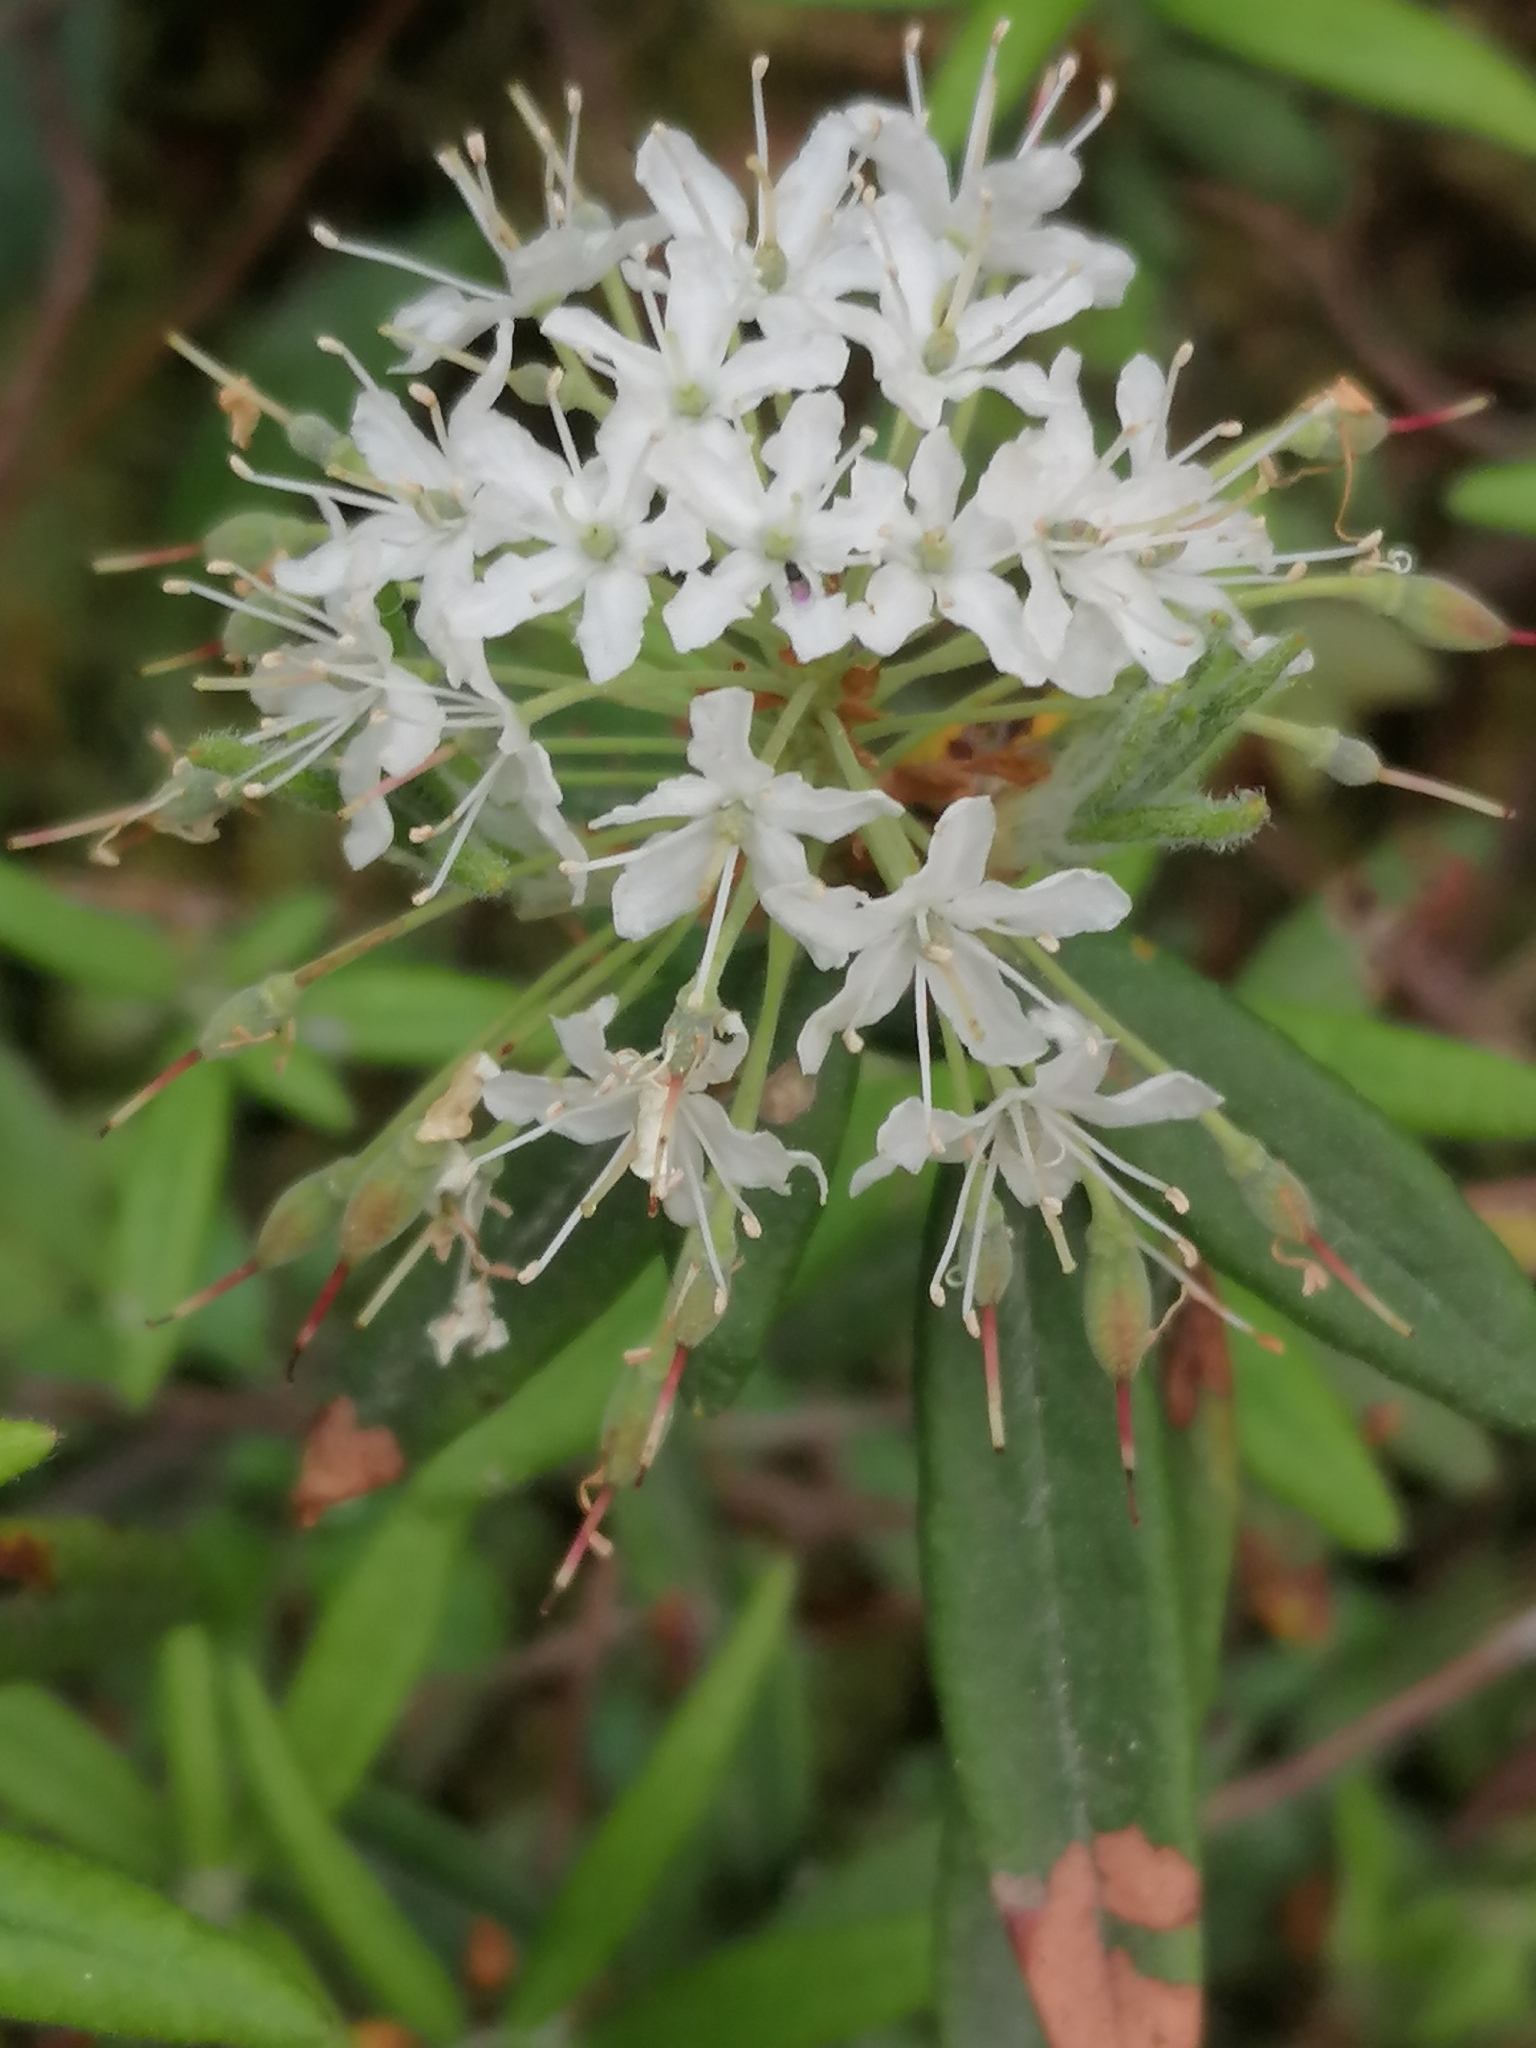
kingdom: Plantae
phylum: Tracheophyta
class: Magnoliopsida
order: Ericales
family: Ericaceae
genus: Rhododendron
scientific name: Rhododendron groenlandicum
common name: Bog labrador tea
